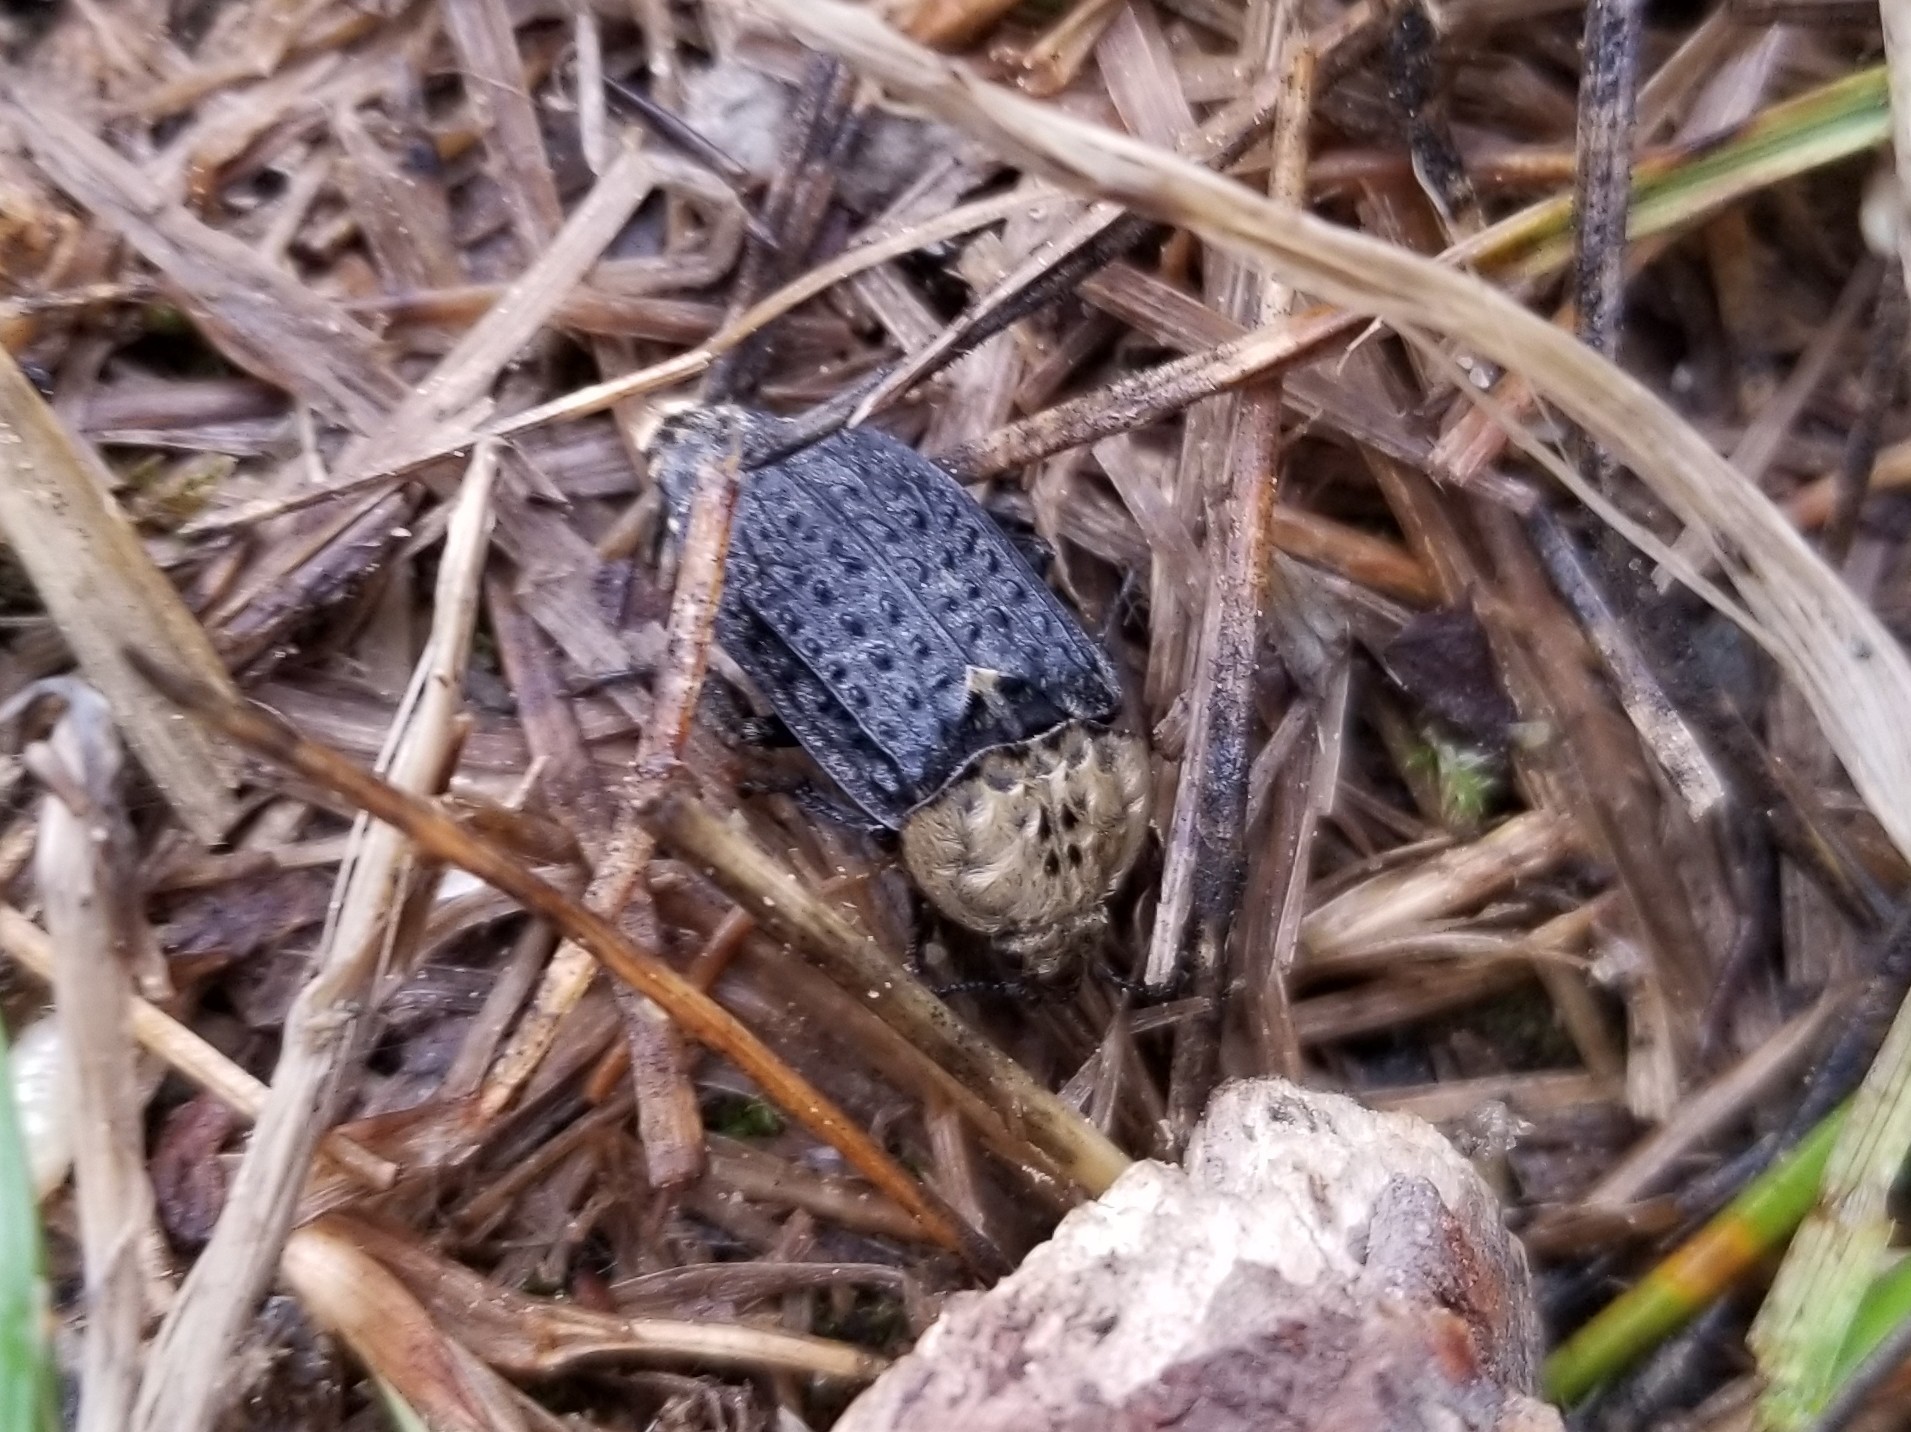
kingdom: Animalia
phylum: Arthropoda
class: Insecta
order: Coleoptera
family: Staphylinidae
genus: Thanatophilus
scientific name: Thanatophilus lapponicus
